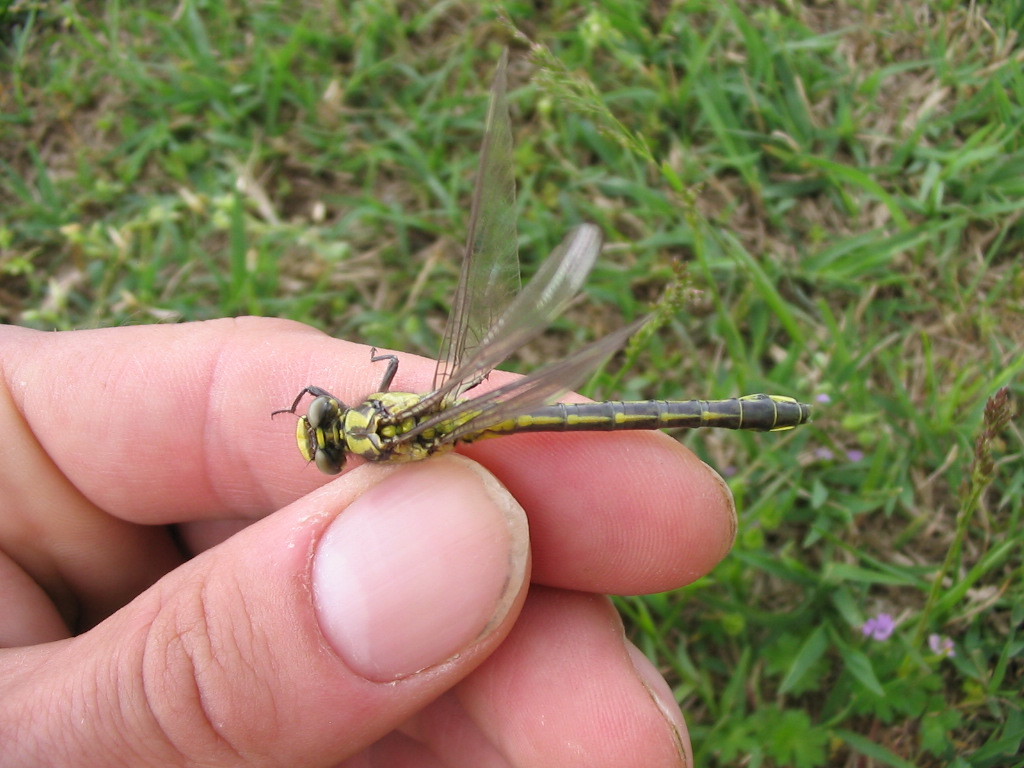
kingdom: Animalia
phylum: Arthropoda
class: Insecta
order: Odonata
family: Gomphidae
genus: Gomphus
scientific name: Gomphus vulgatissimus
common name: Club-tailed dragonfly
